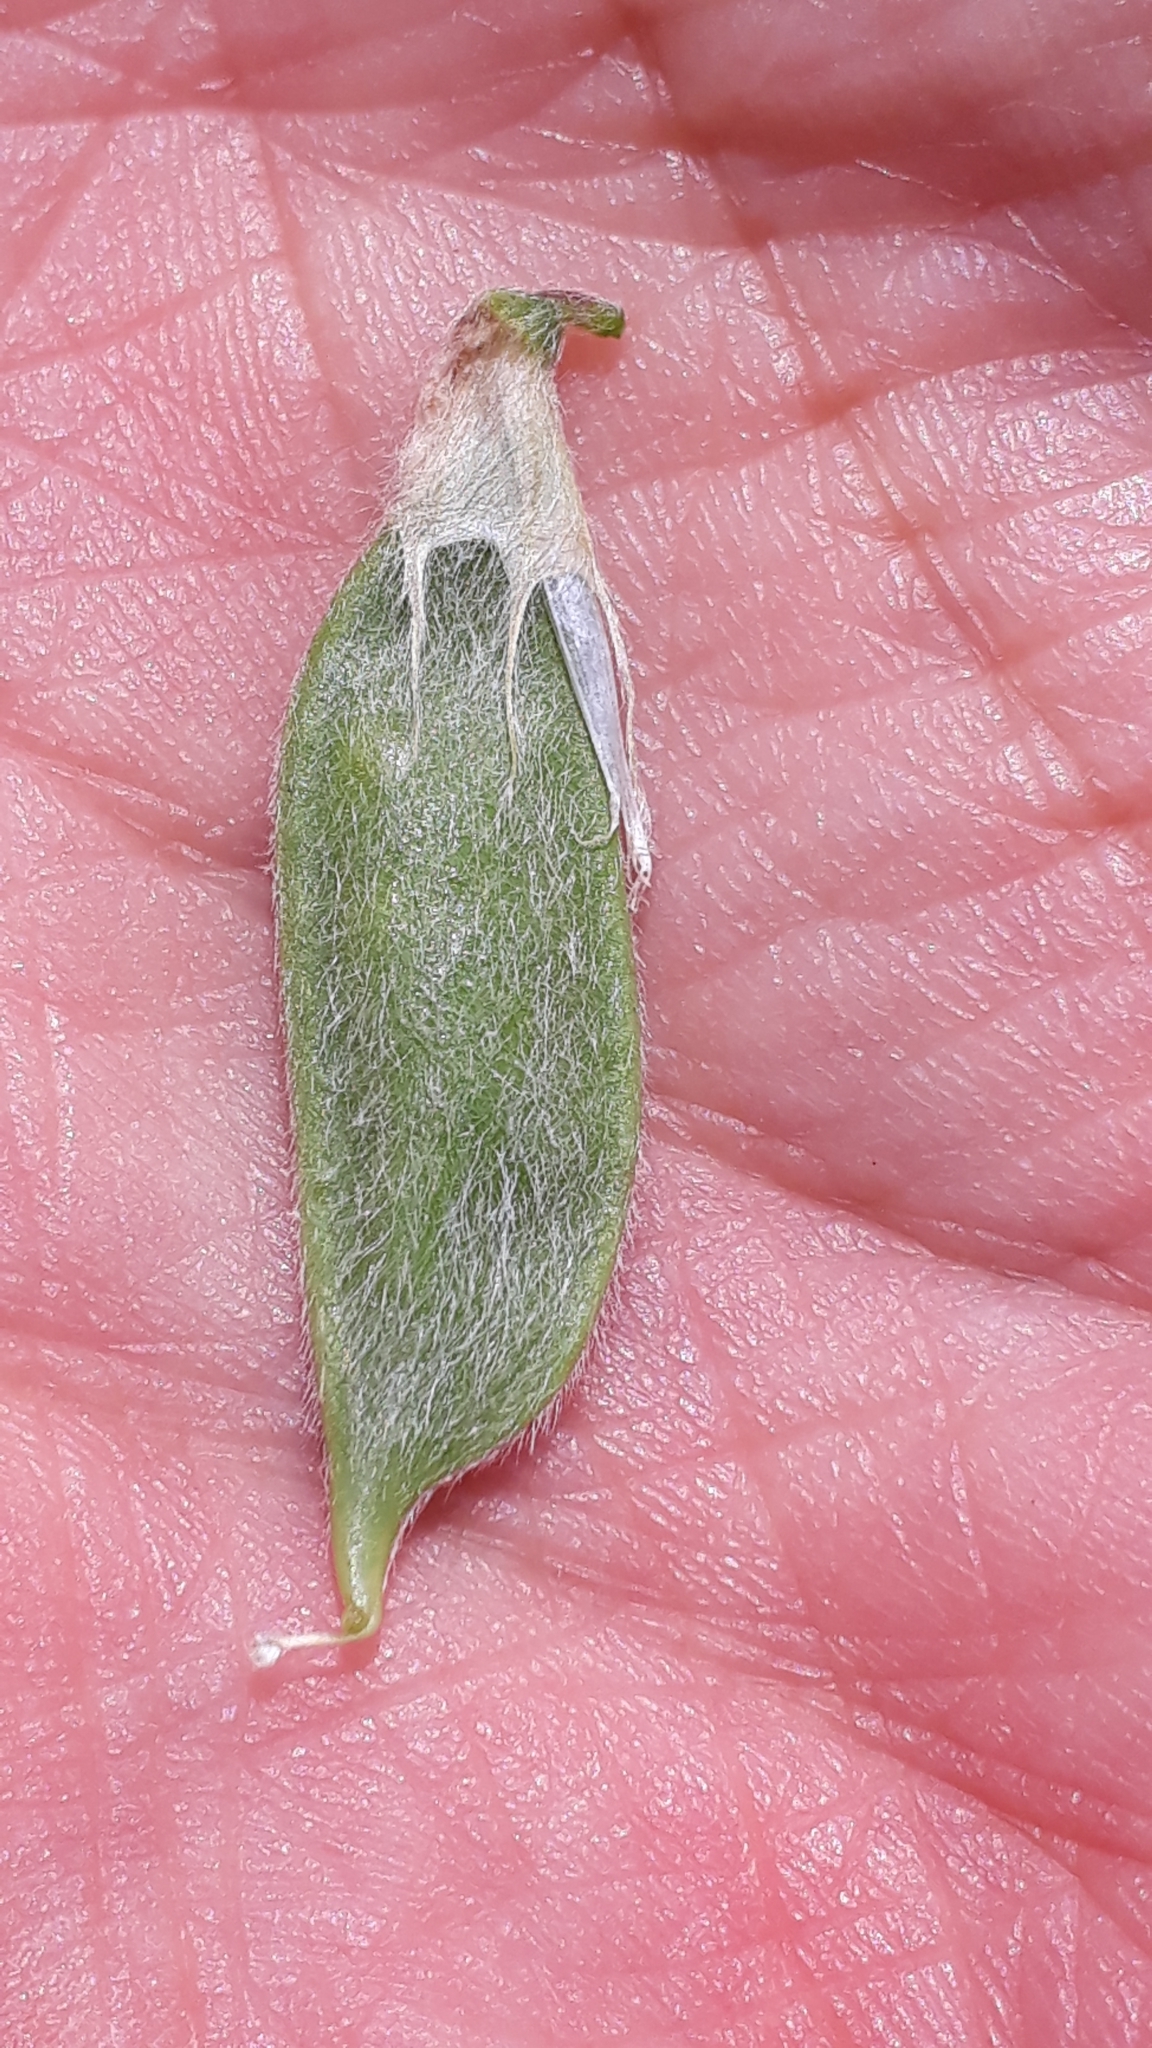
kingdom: Plantae
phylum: Tracheophyta
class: Magnoliopsida
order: Fabales
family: Fabaceae
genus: Vicia
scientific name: Vicia pannonica
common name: Hungarian vetch
